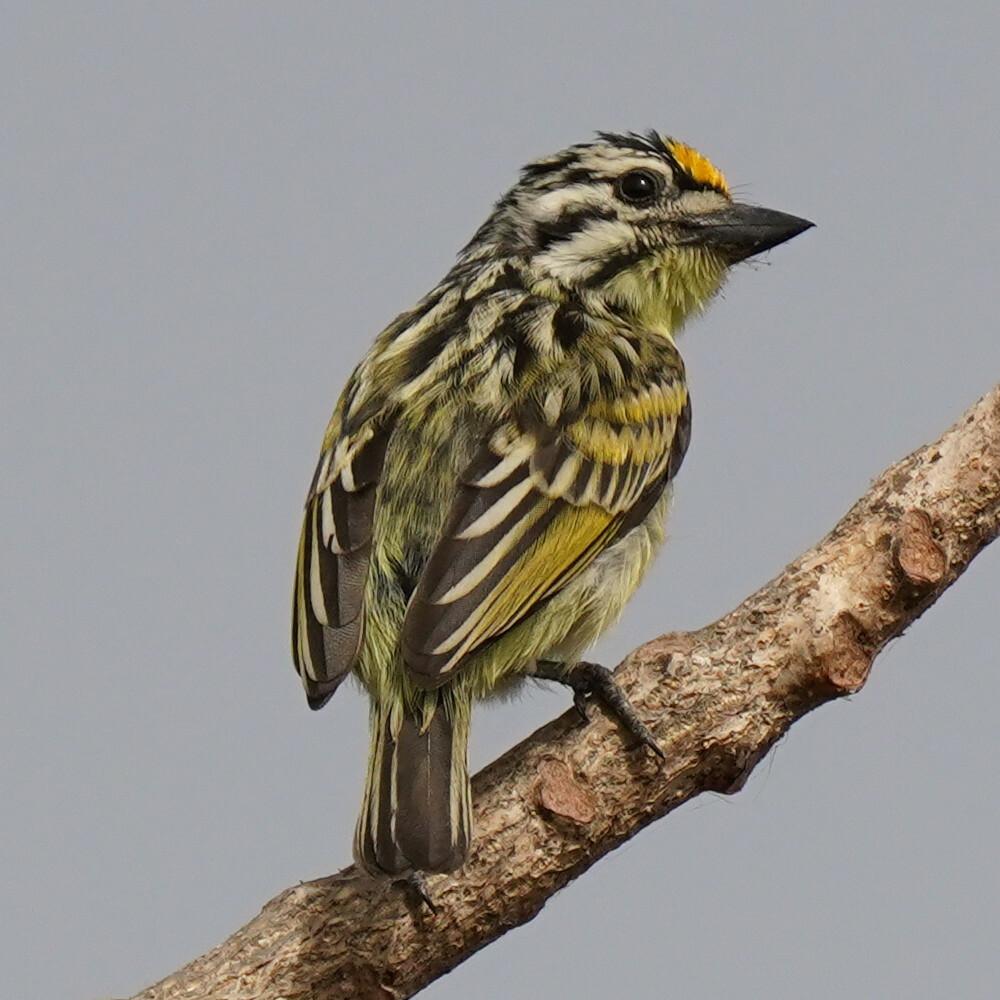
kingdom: Animalia
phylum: Chordata
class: Aves
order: Piciformes
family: Lybiidae
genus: Pogoniulus
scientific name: Pogoniulus chrysoconus
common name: Yellow-fronted tinkerbird
